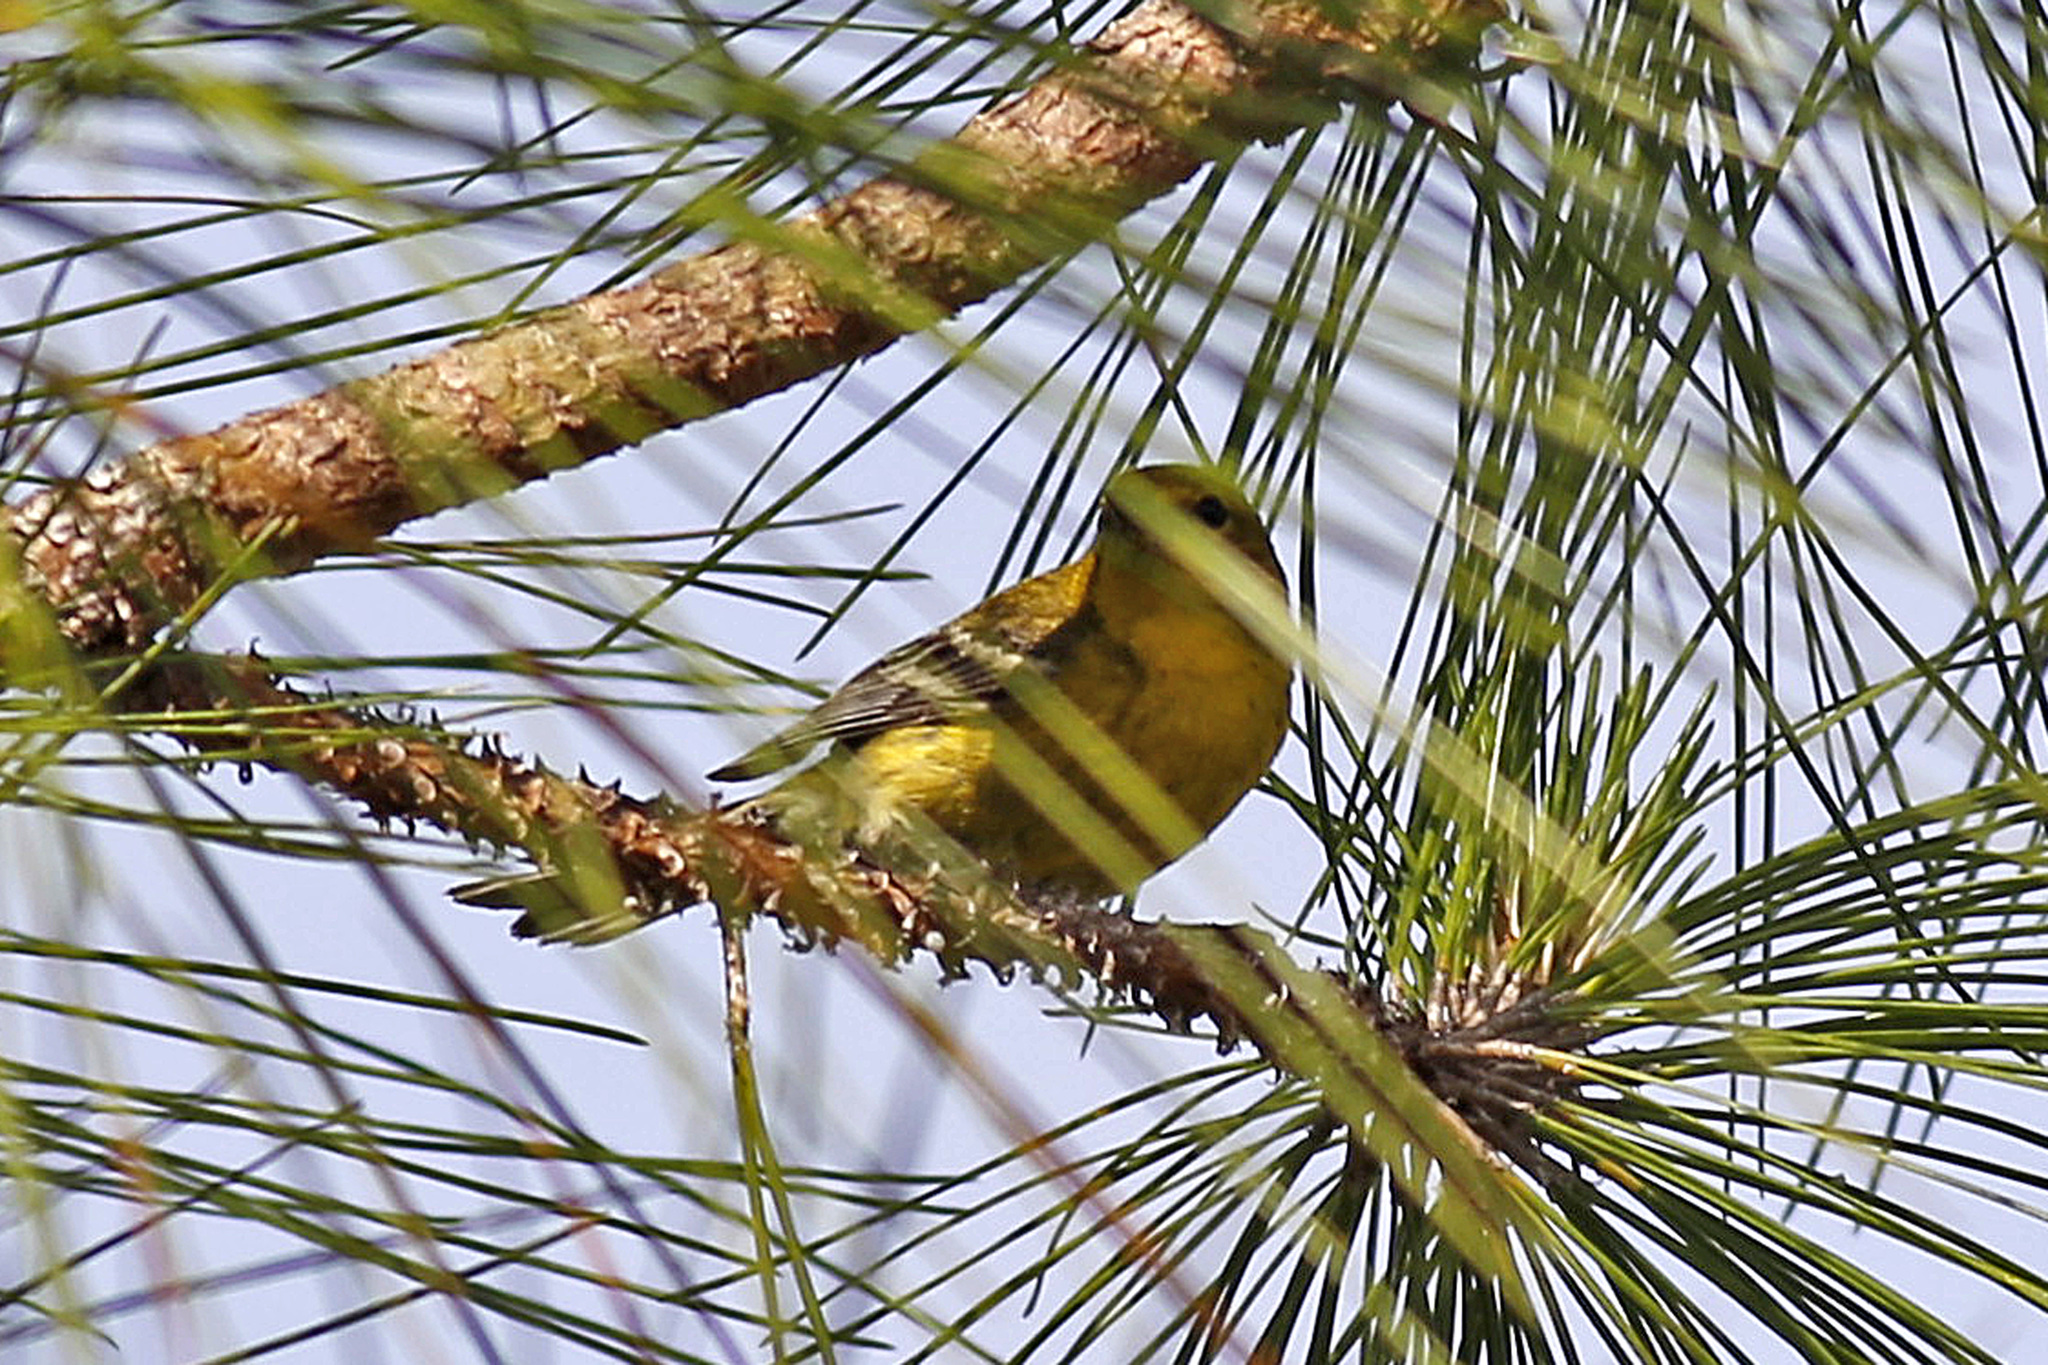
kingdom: Animalia
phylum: Chordata
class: Aves
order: Passeriformes
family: Parulidae
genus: Setophaga
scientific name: Setophaga pinus
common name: Pine warbler
